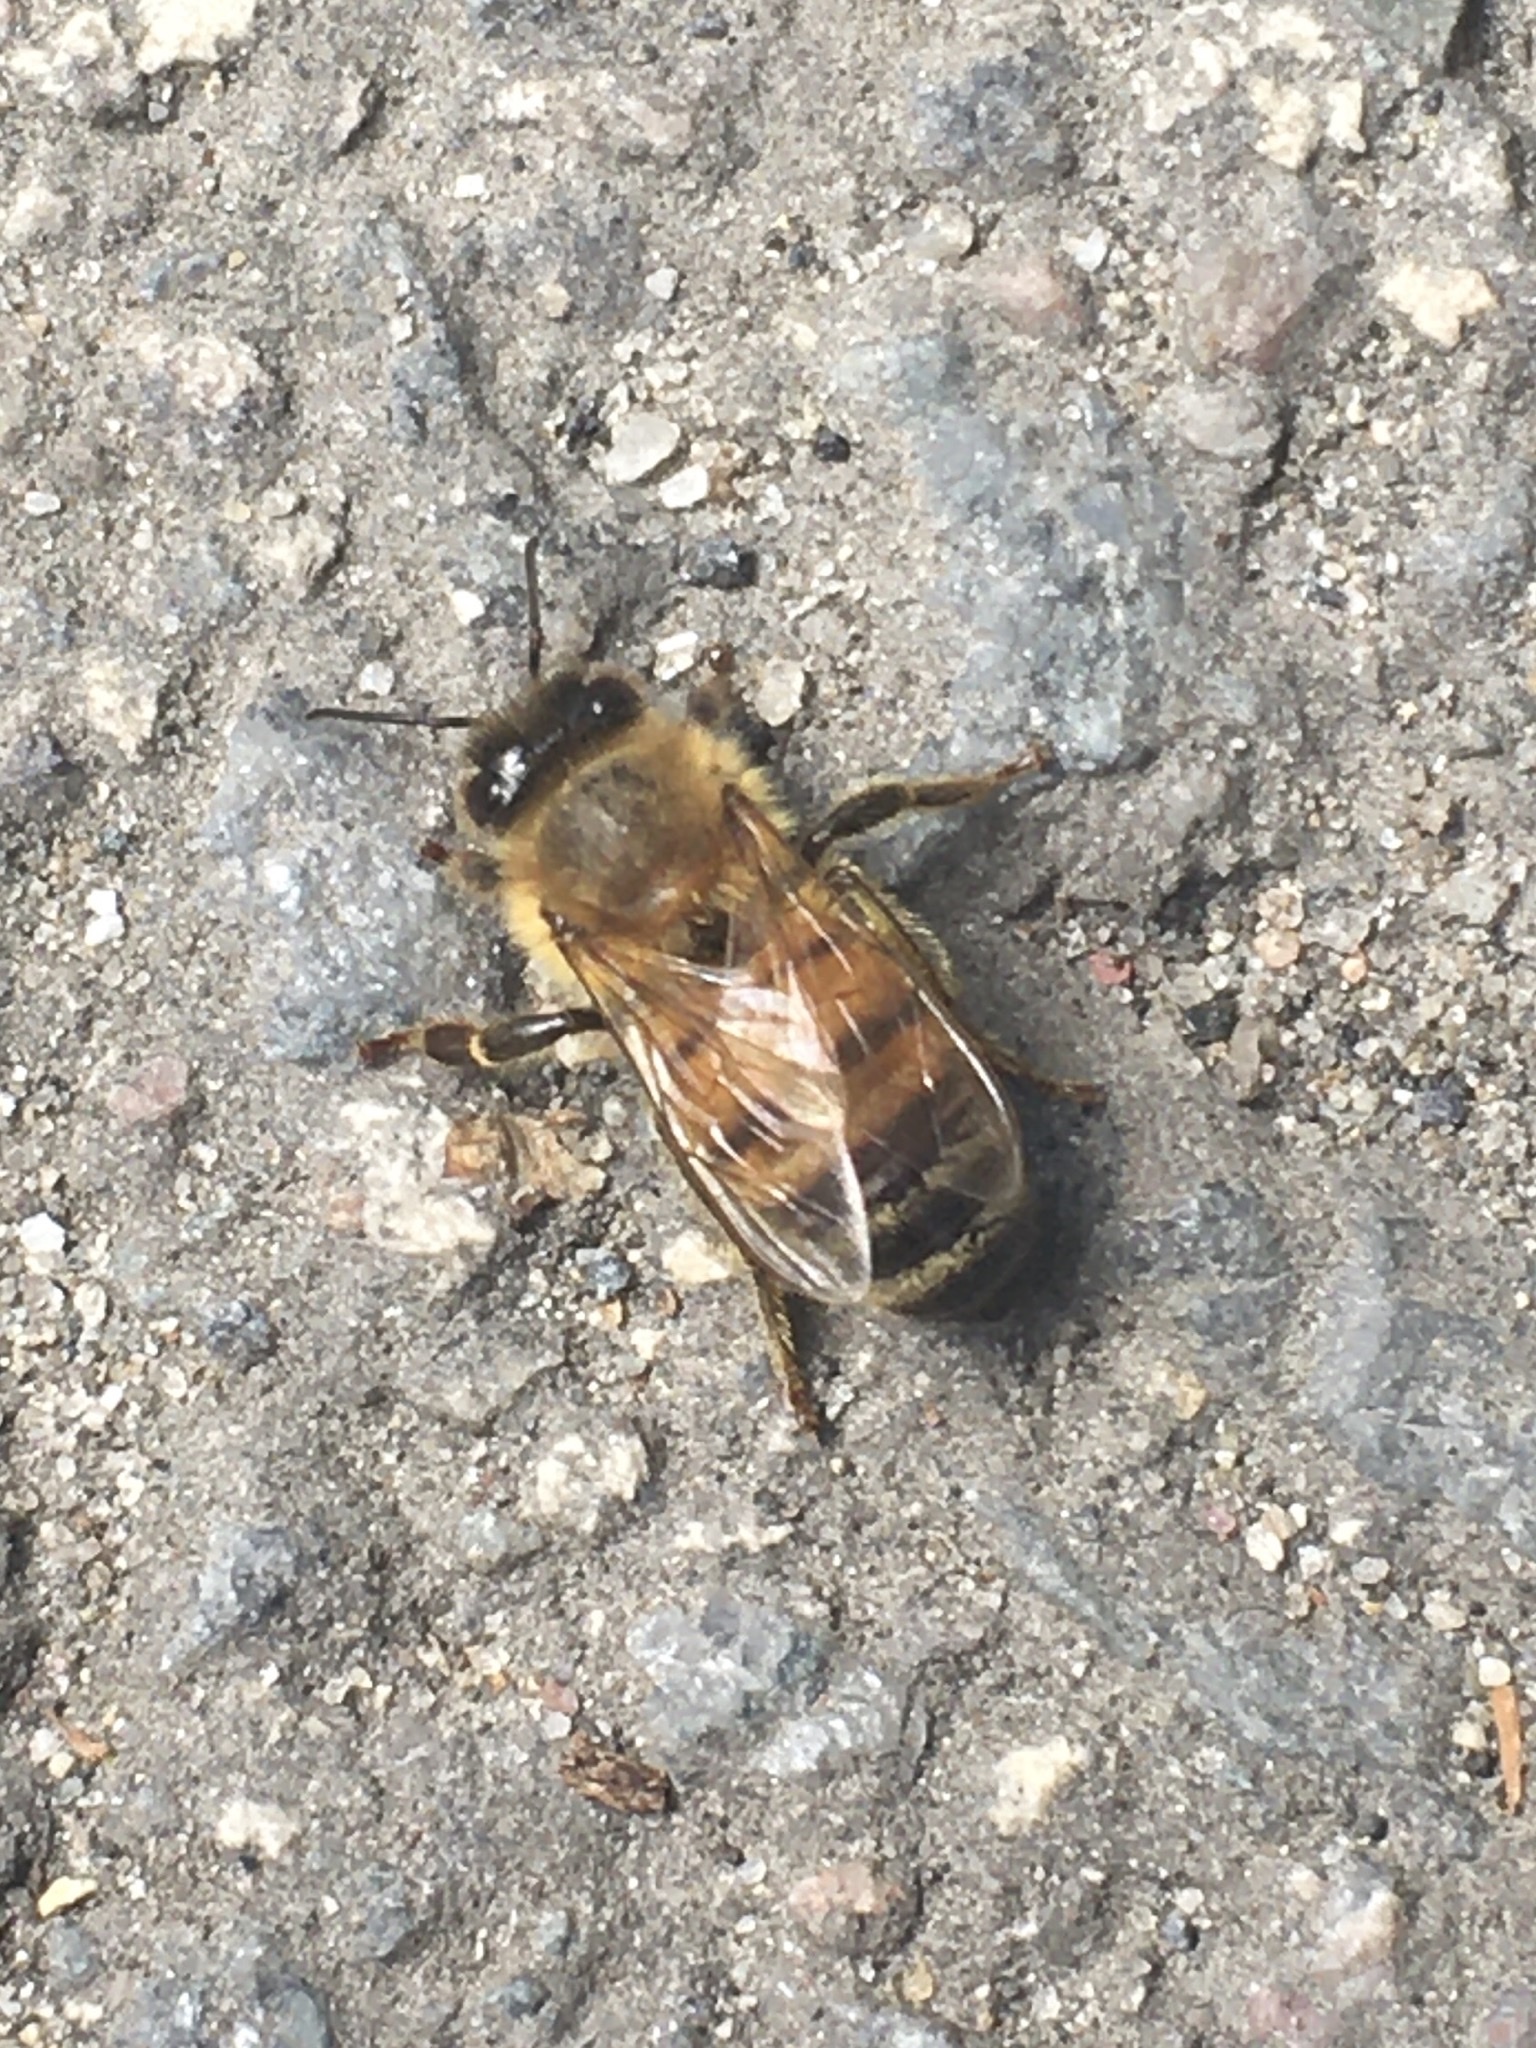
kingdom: Animalia
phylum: Arthropoda
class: Insecta
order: Hymenoptera
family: Apidae
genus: Apis
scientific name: Apis mellifera
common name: Honey bee
